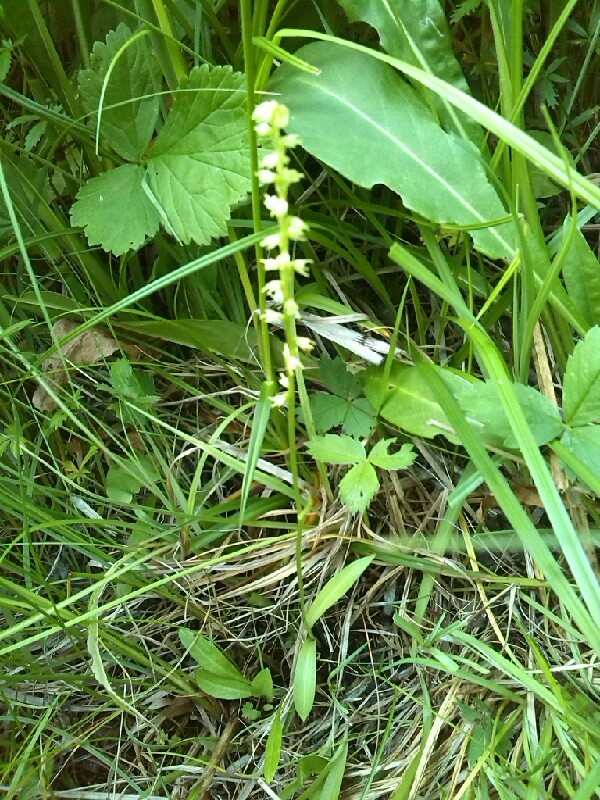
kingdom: Plantae
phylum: Tracheophyta
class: Liliopsida
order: Asparagales
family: Orchidaceae
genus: Herminium
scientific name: Herminium monorchis
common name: Musk orchid
